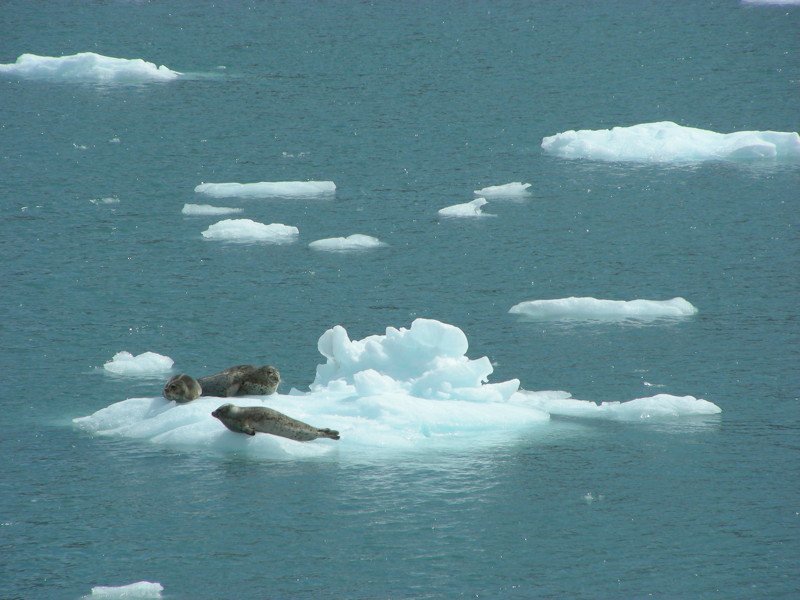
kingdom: Animalia
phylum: Chordata
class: Mammalia
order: Carnivora
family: Mustelidae
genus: Enhydra
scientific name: Enhydra lutris
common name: Sea otter
